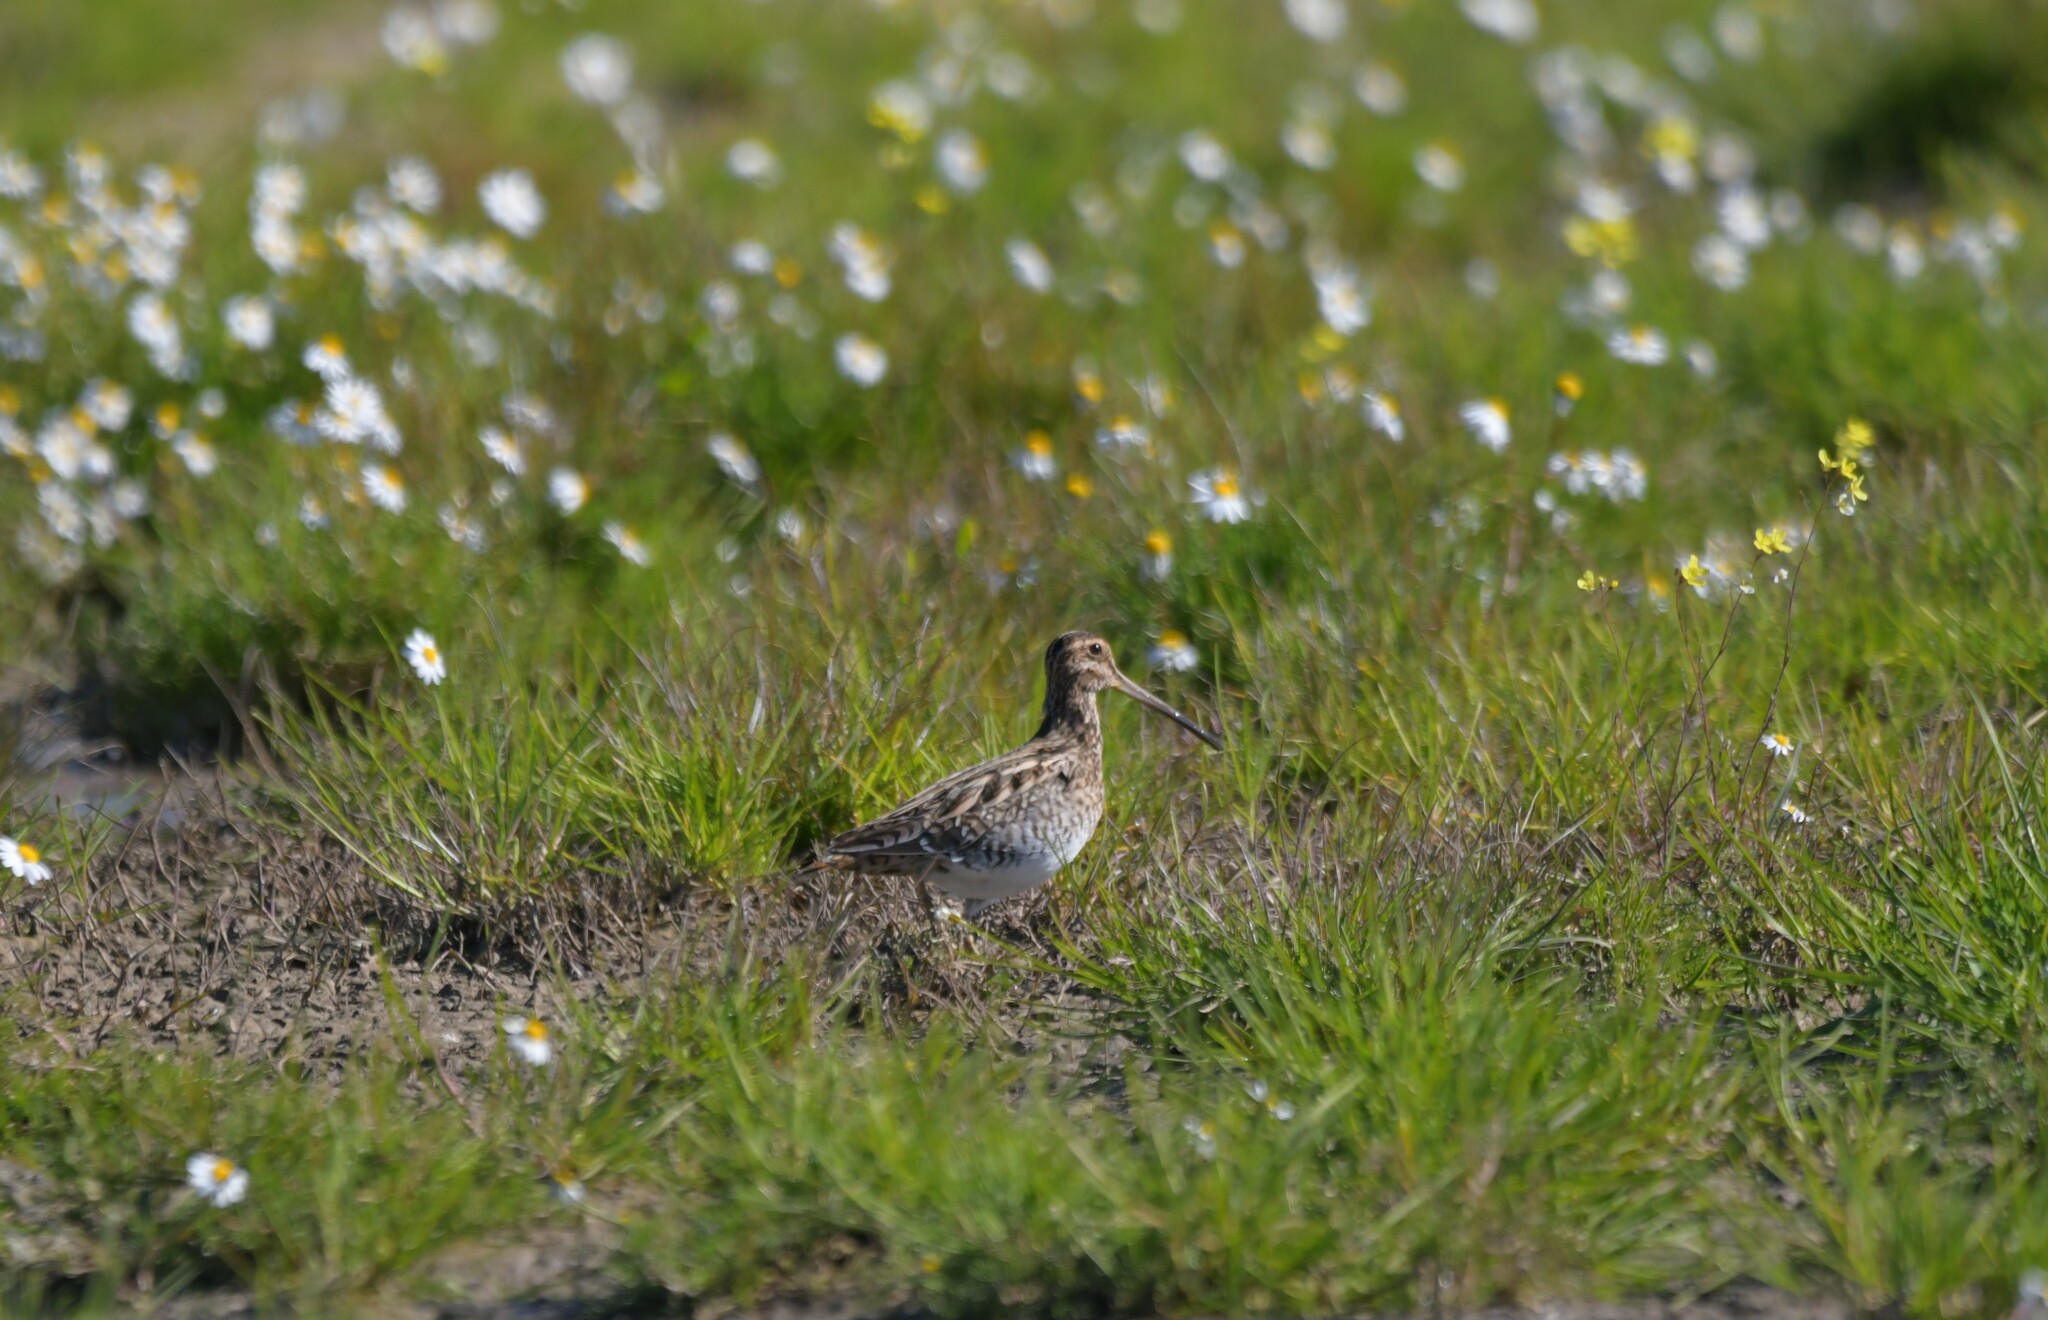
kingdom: Animalia
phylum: Chordata
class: Aves
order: Charadriiformes
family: Scolopacidae
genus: Gallinago
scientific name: Gallinago gallinago
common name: Common snipe
